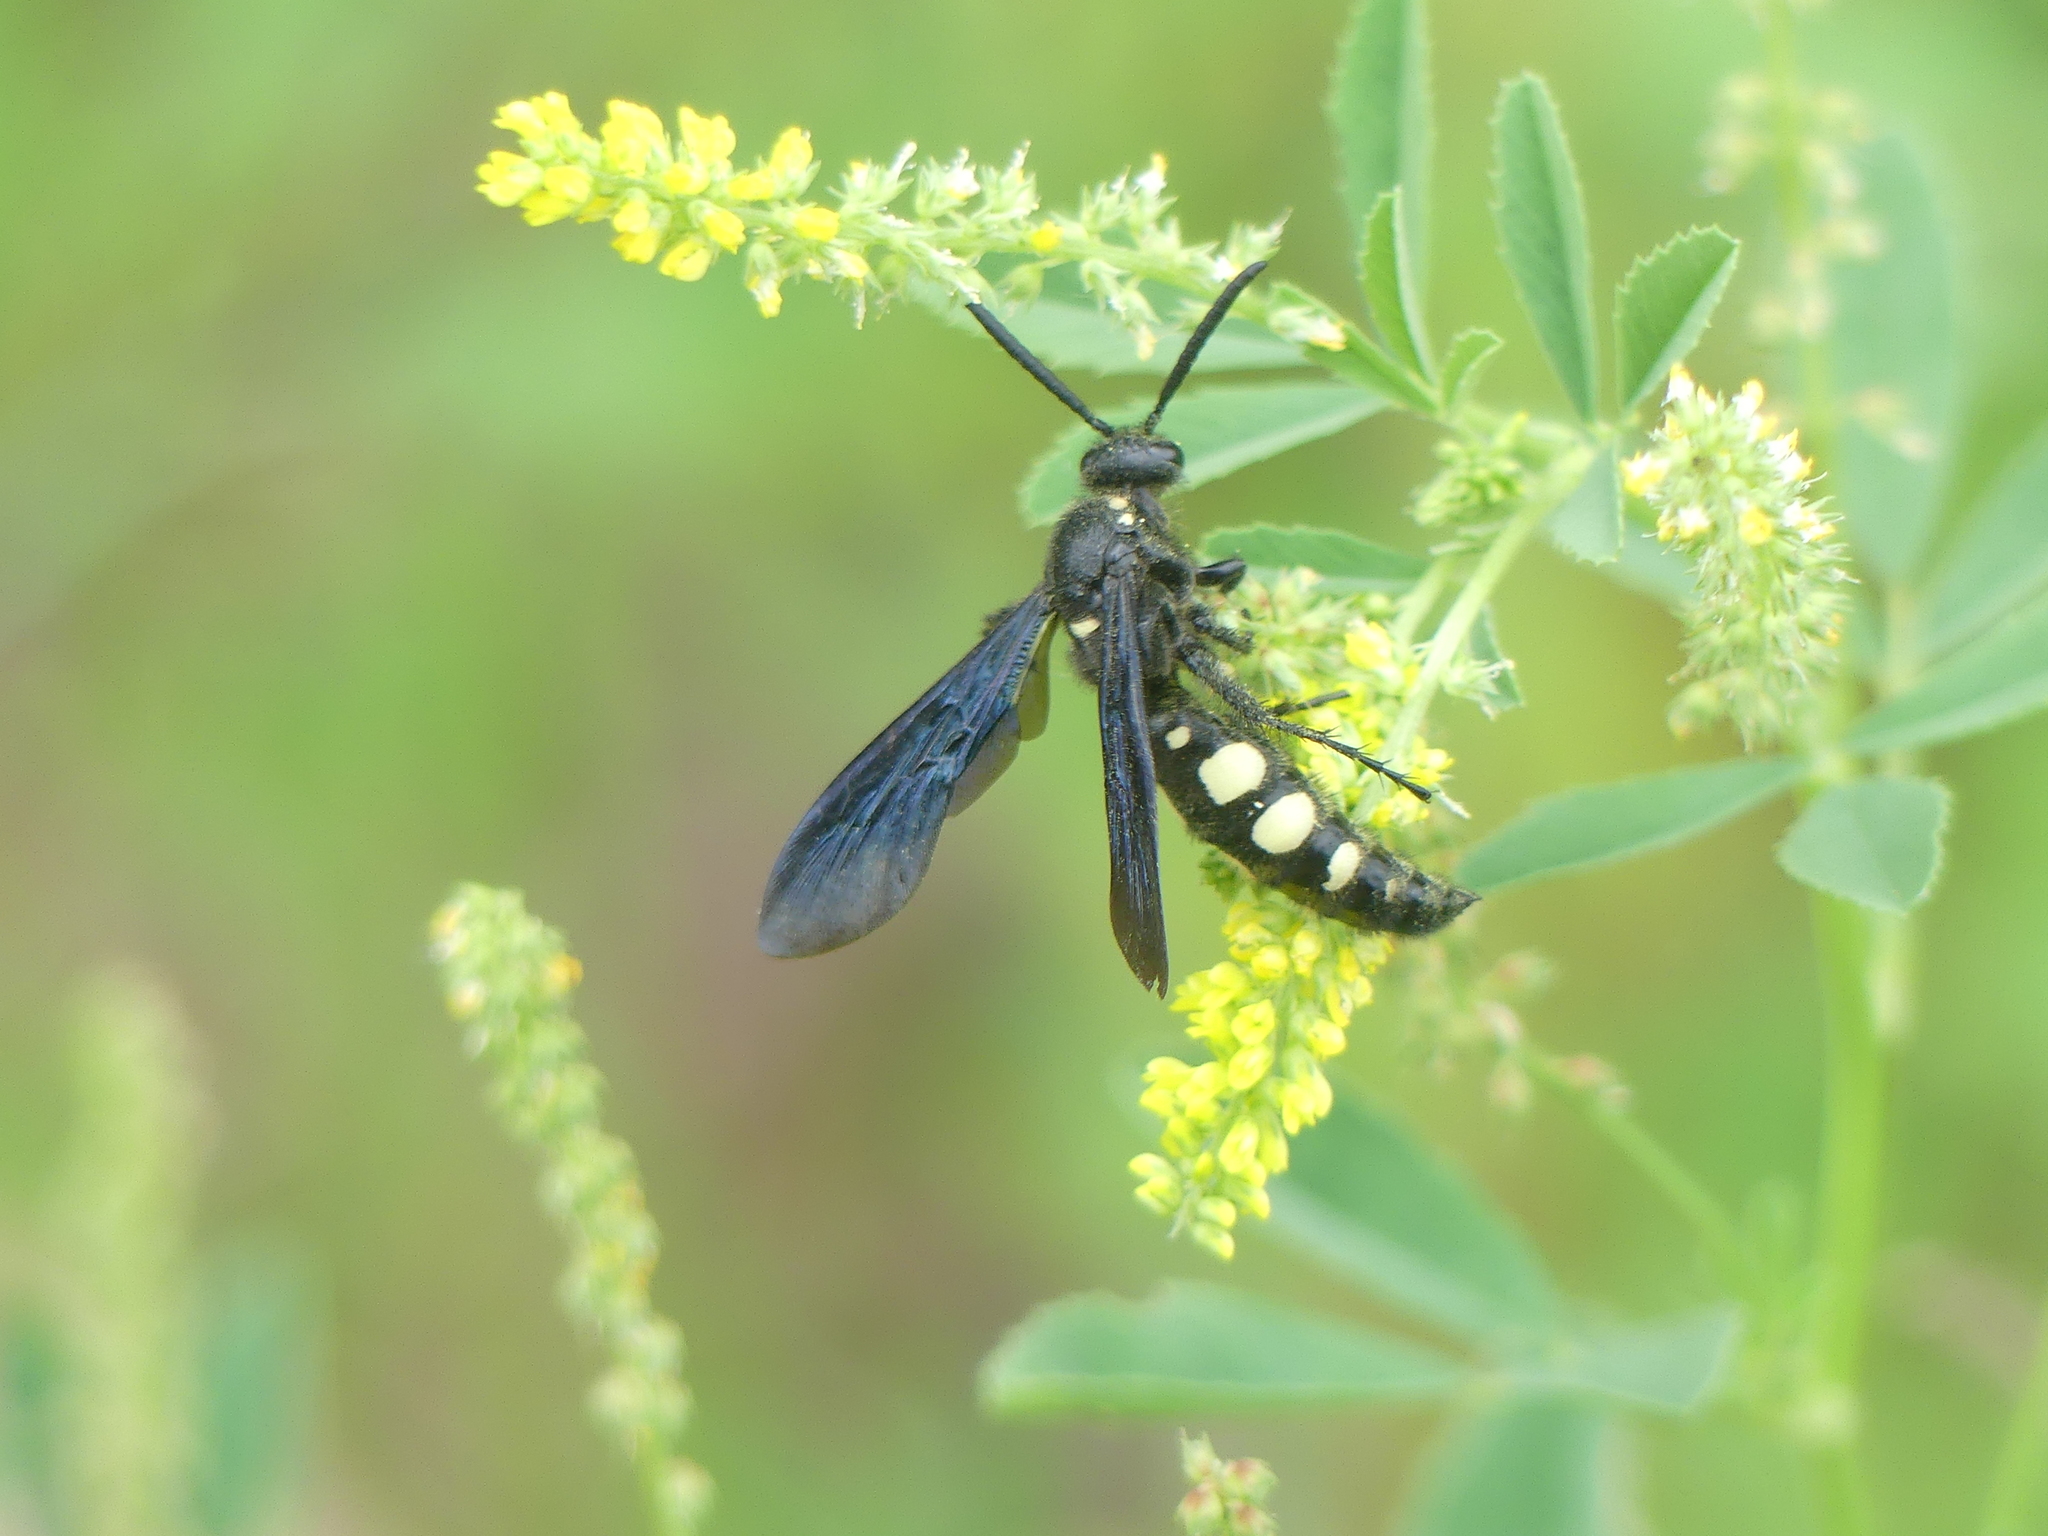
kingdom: Animalia
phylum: Arthropoda
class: Insecta
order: Hymenoptera
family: Scoliidae
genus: Scolia
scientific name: Scolia guttata
